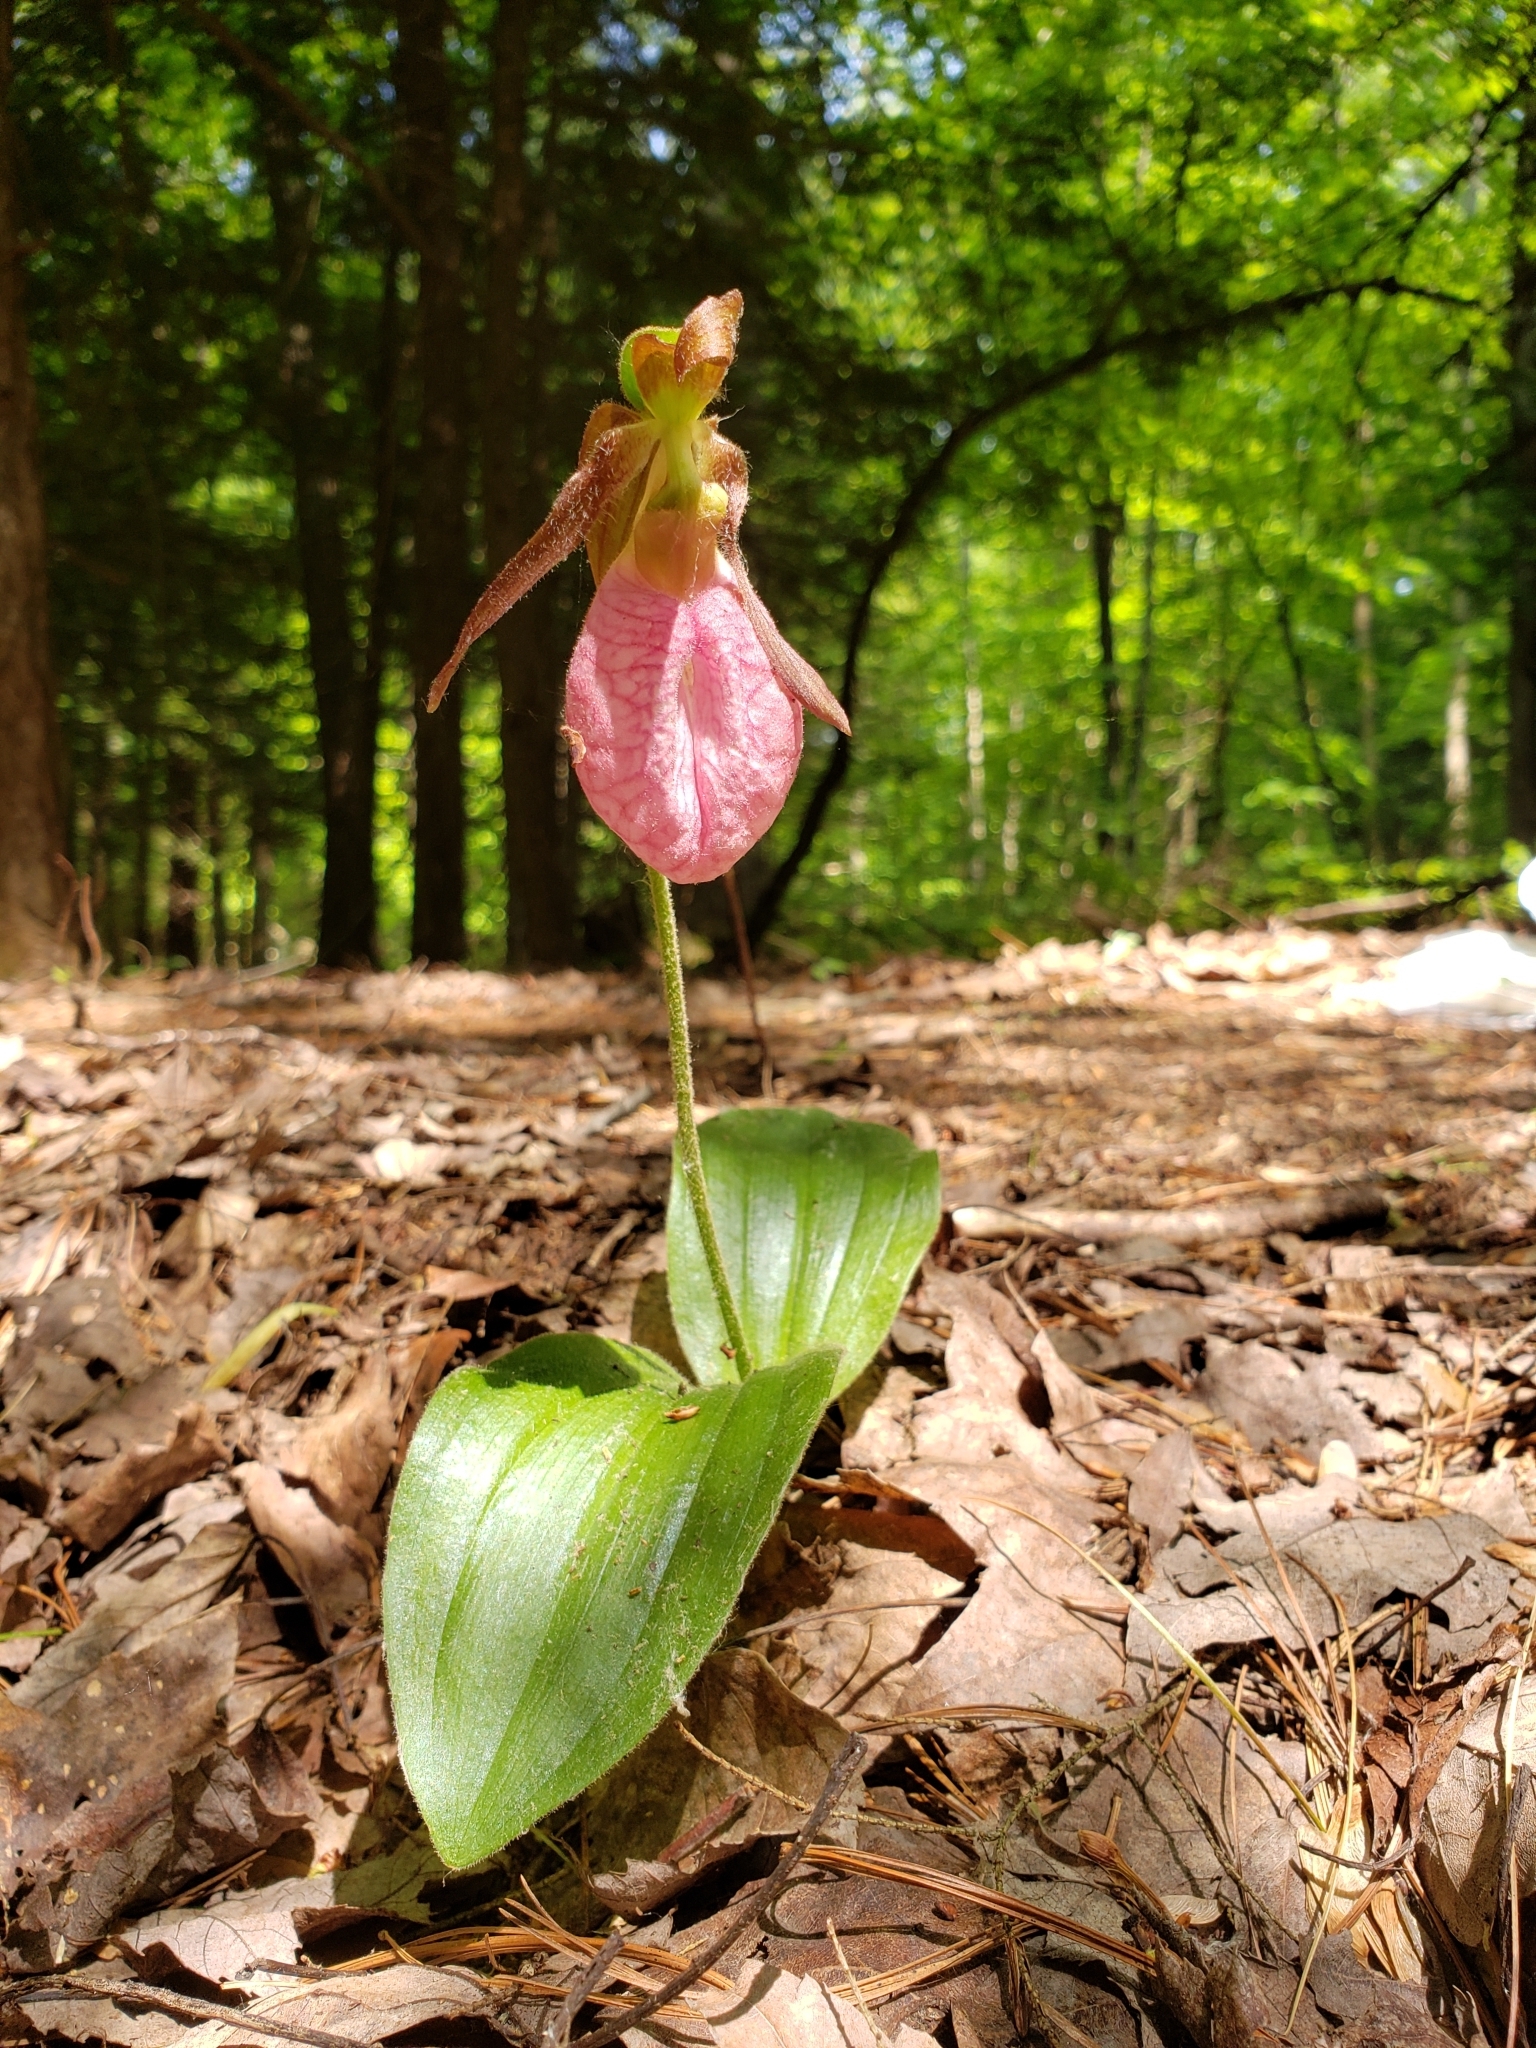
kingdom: Plantae
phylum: Tracheophyta
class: Liliopsida
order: Asparagales
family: Orchidaceae
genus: Cypripedium
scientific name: Cypripedium acaule
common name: Pink lady's-slipper
